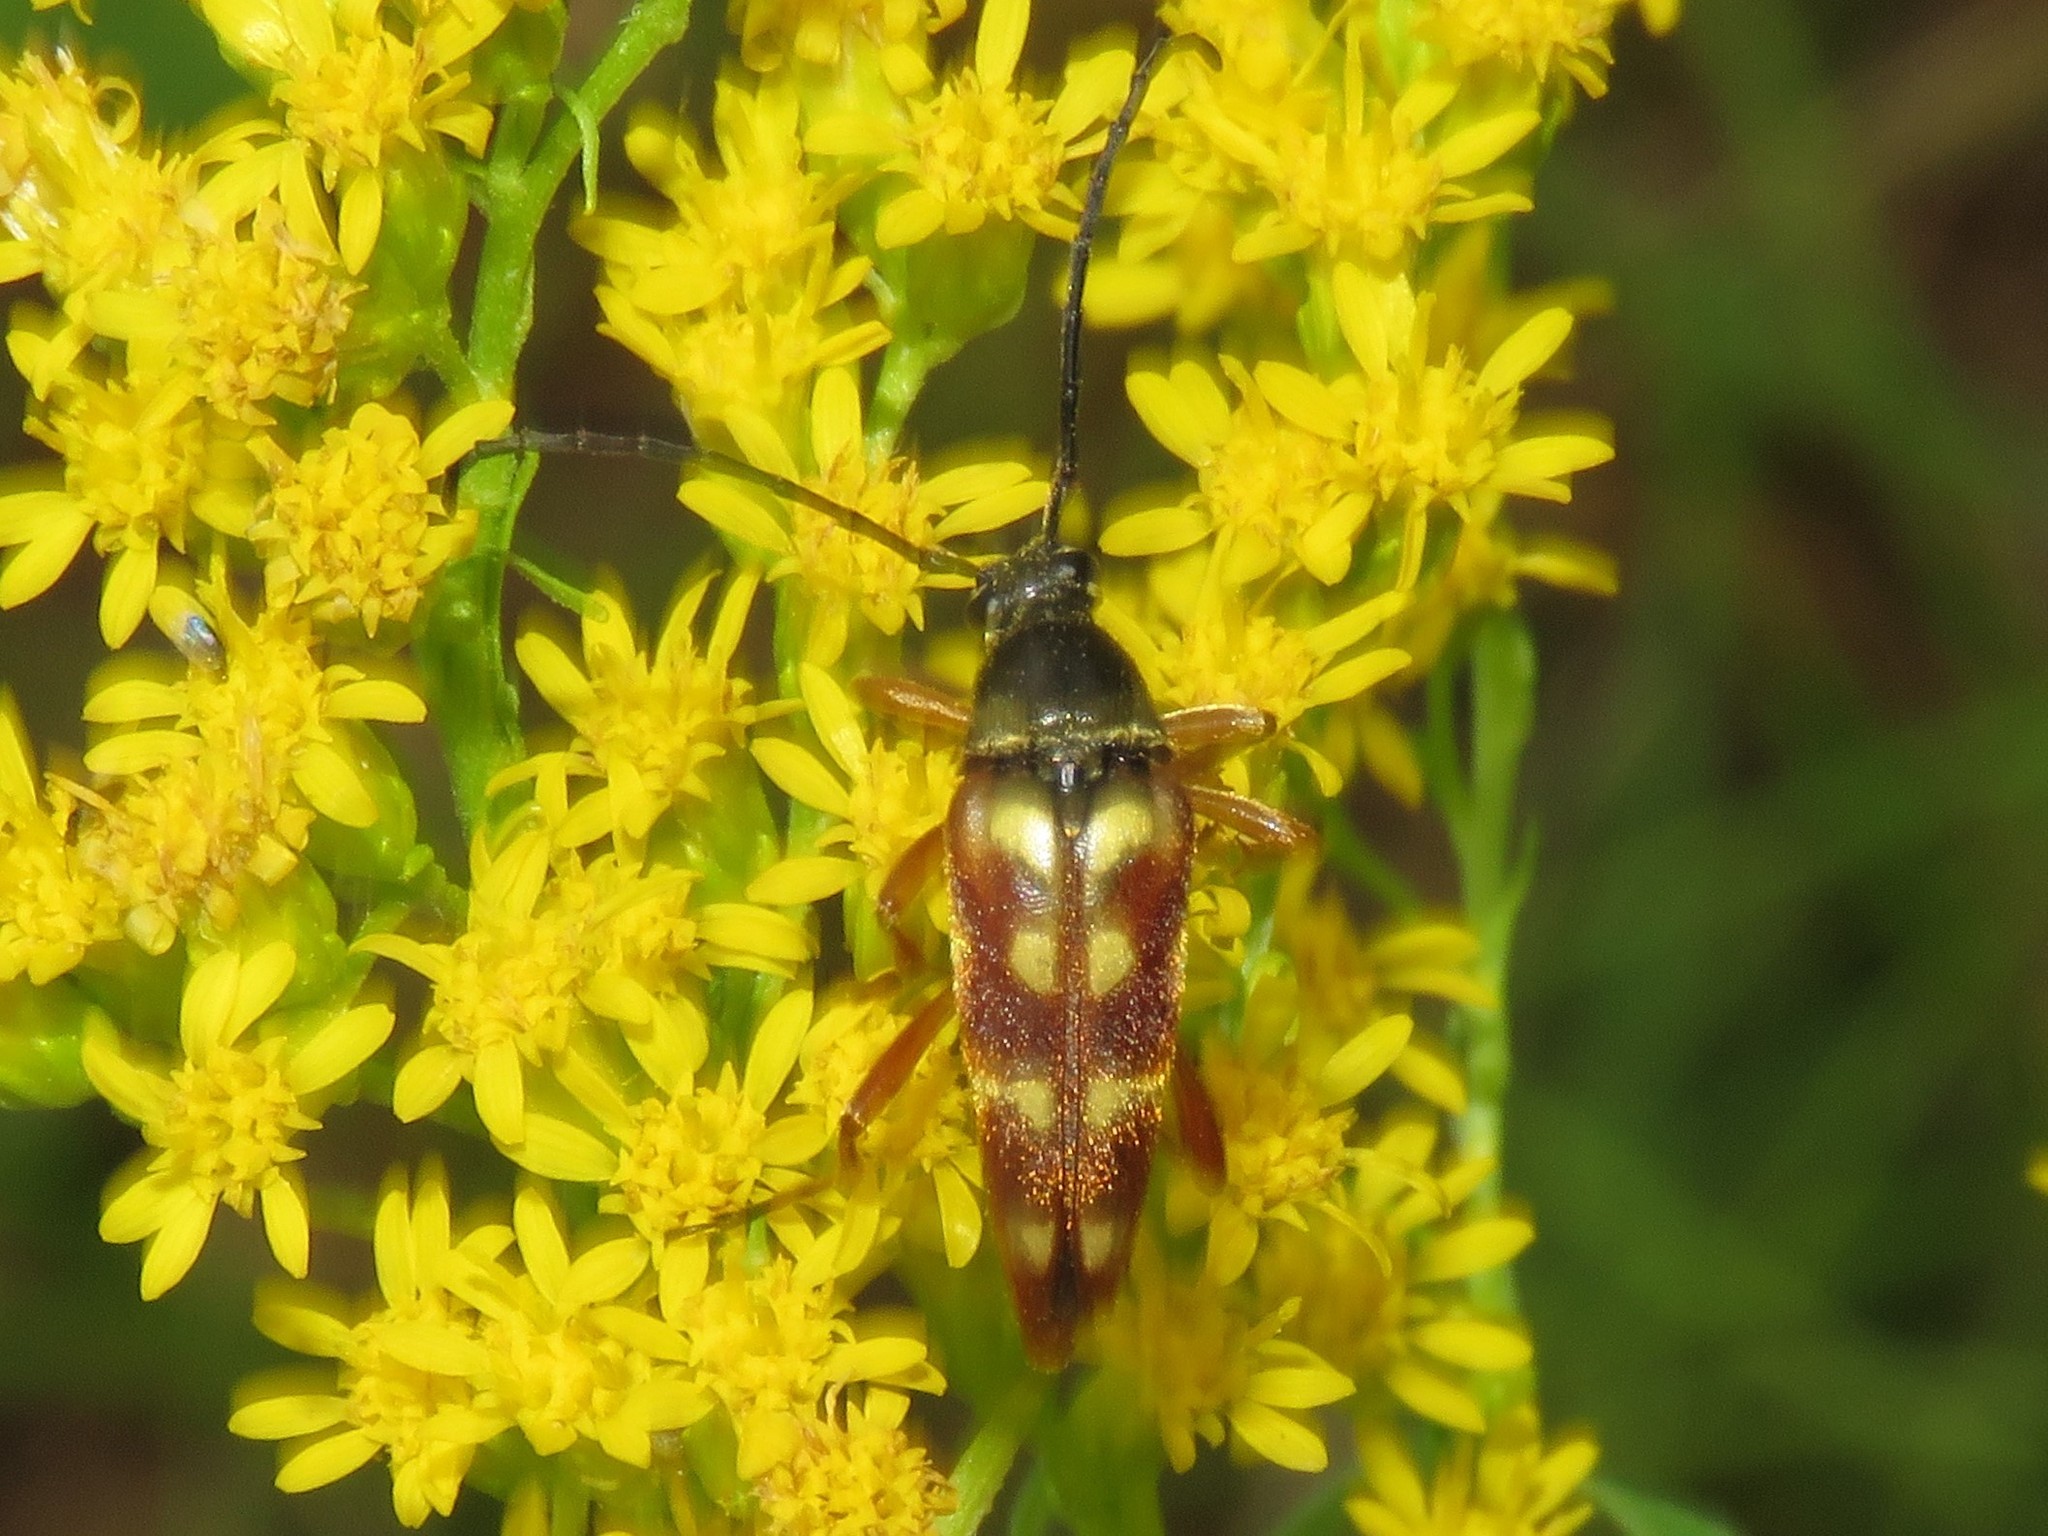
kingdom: Animalia
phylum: Arthropoda
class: Insecta
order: Coleoptera
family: Cerambycidae
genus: Typocerus
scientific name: Typocerus velutinus
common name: Banded longhorn beetle
